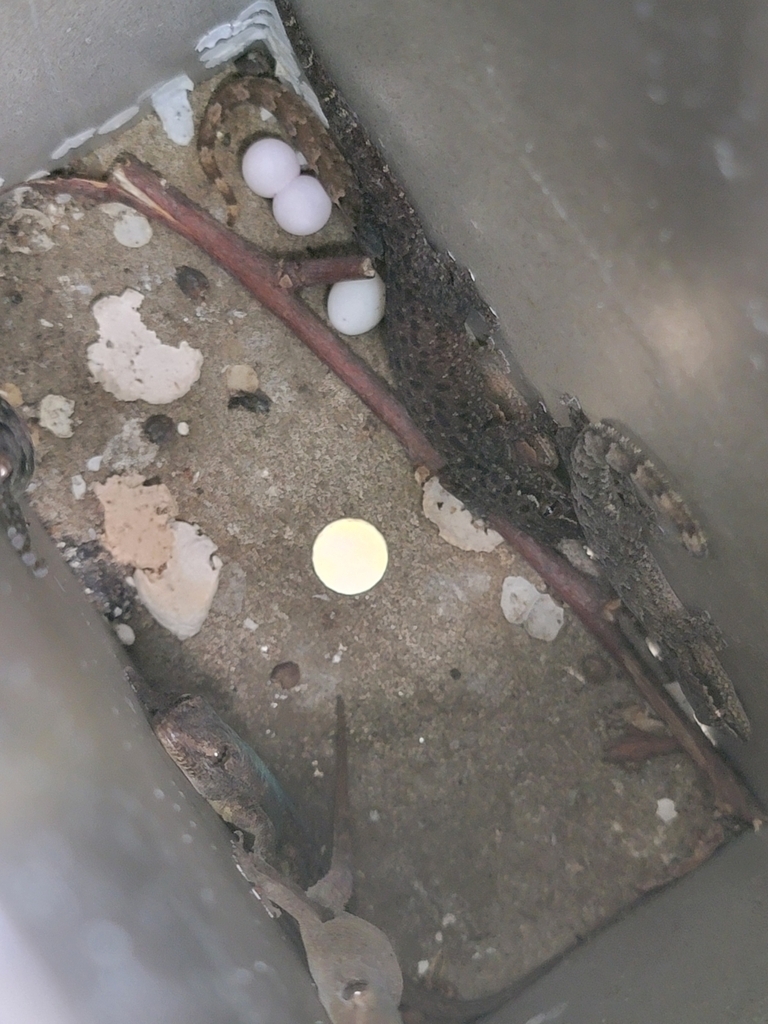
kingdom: Animalia
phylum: Chordata
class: Squamata
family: Gekkonidae
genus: Lepidodactylus
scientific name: Lepidodactylus lugubris
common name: Mourning gecko
